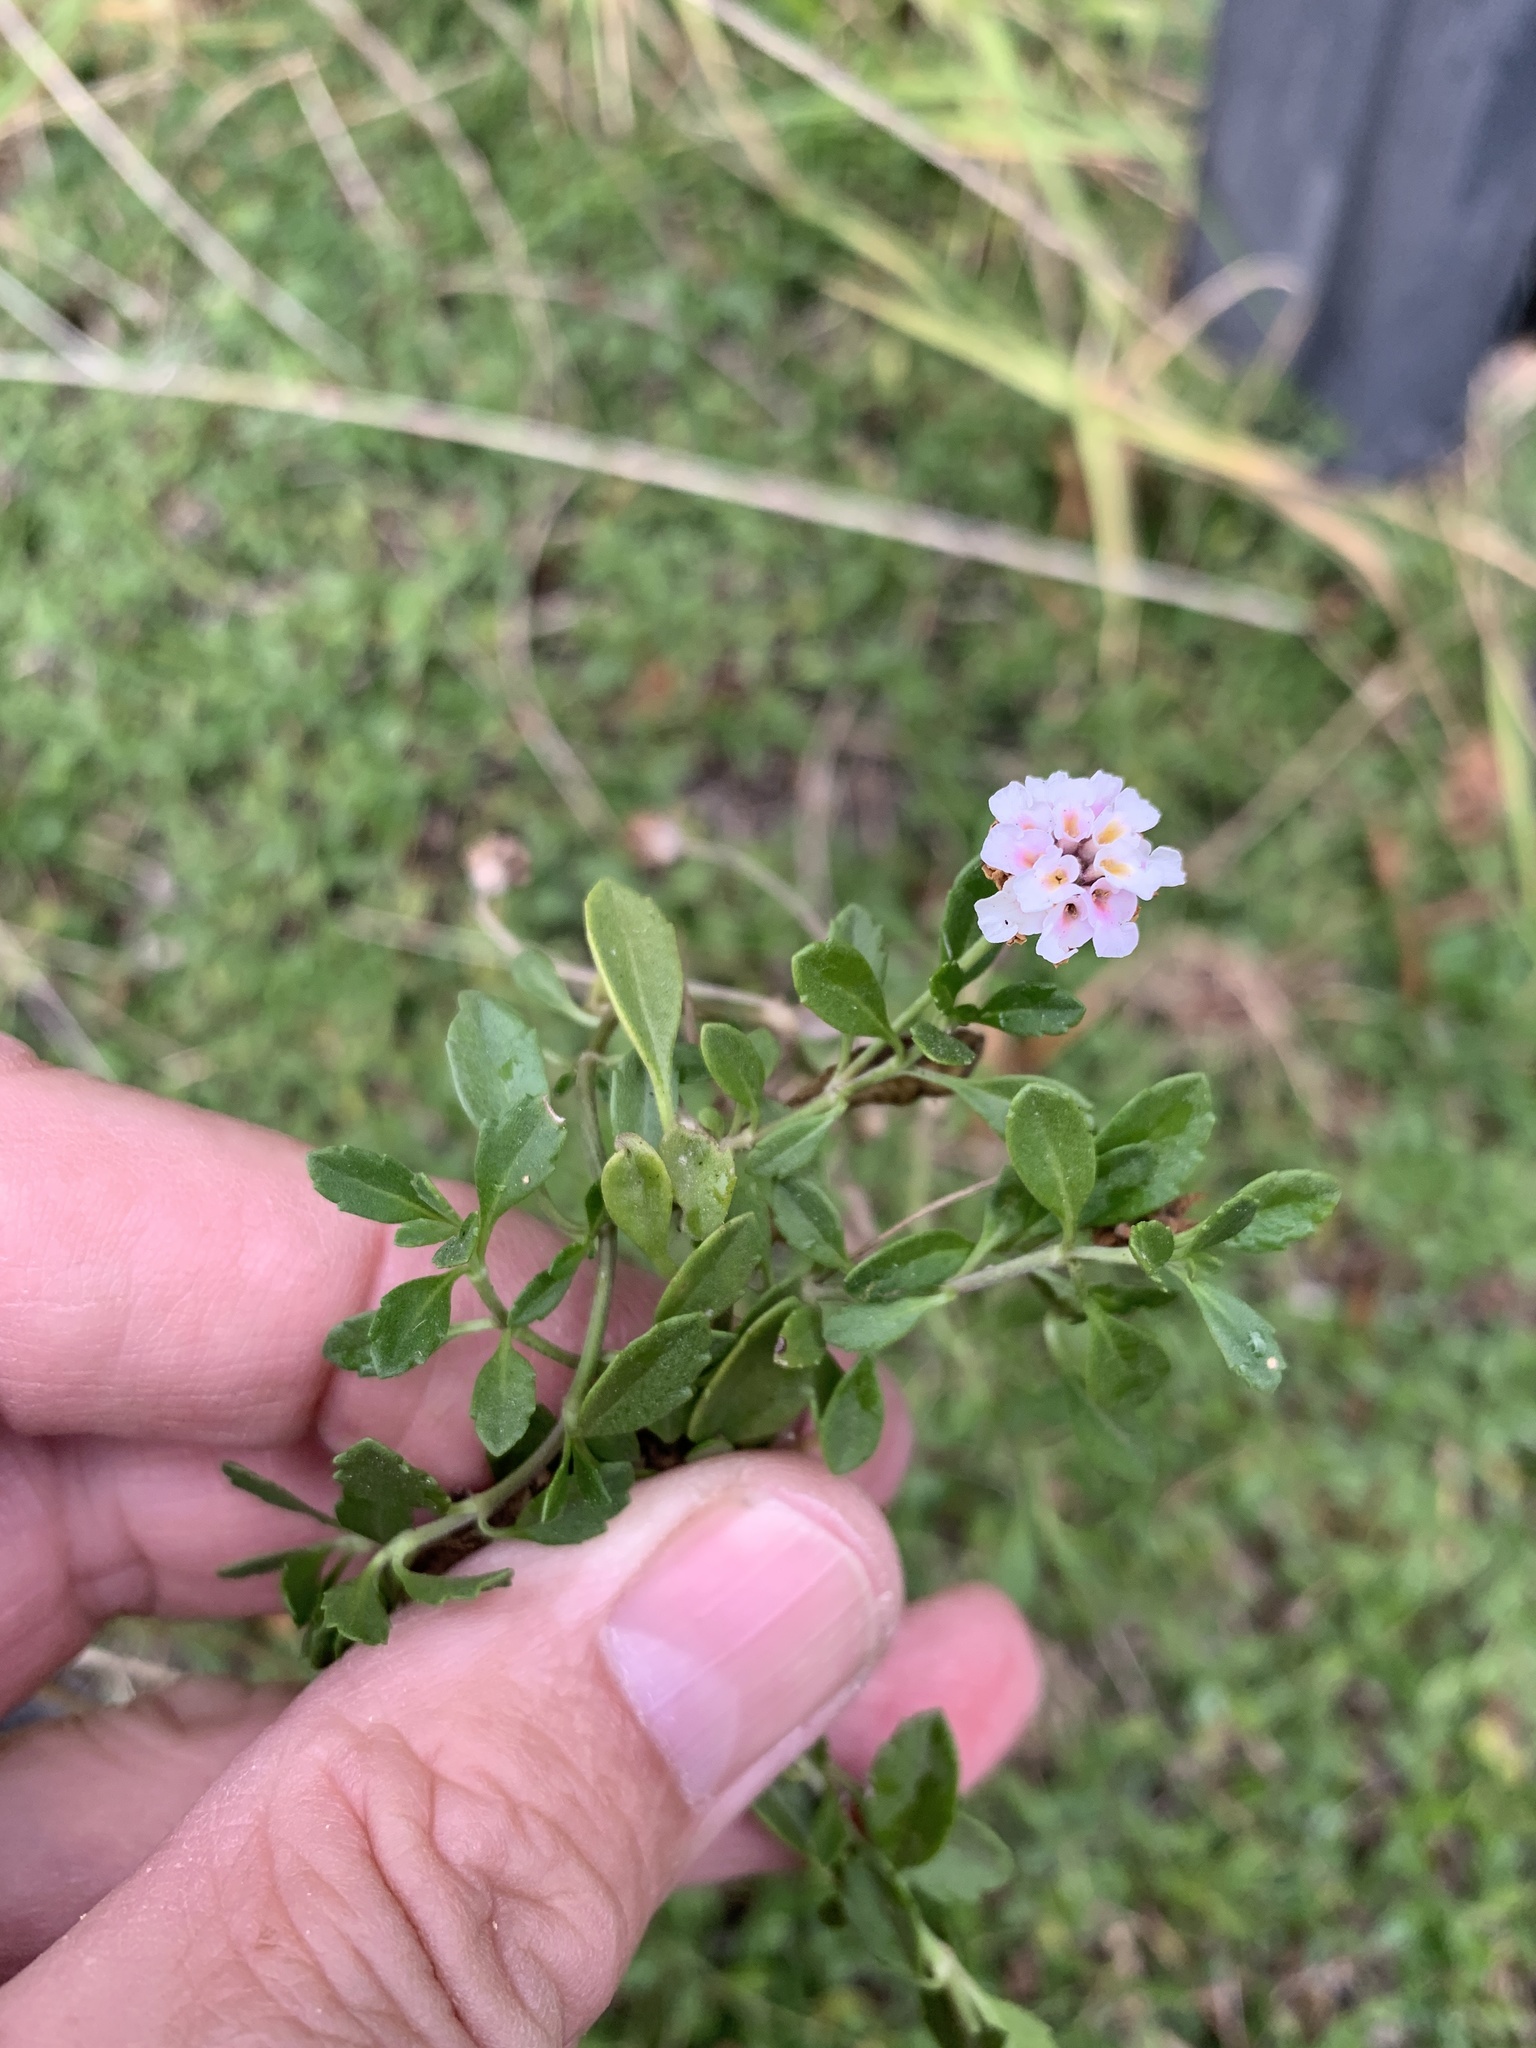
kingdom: Plantae
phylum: Tracheophyta
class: Magnoliopsida
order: Lamiales
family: Verbenaceae
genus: Phyla
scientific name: Phyla nodiflora
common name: Frogfruit
